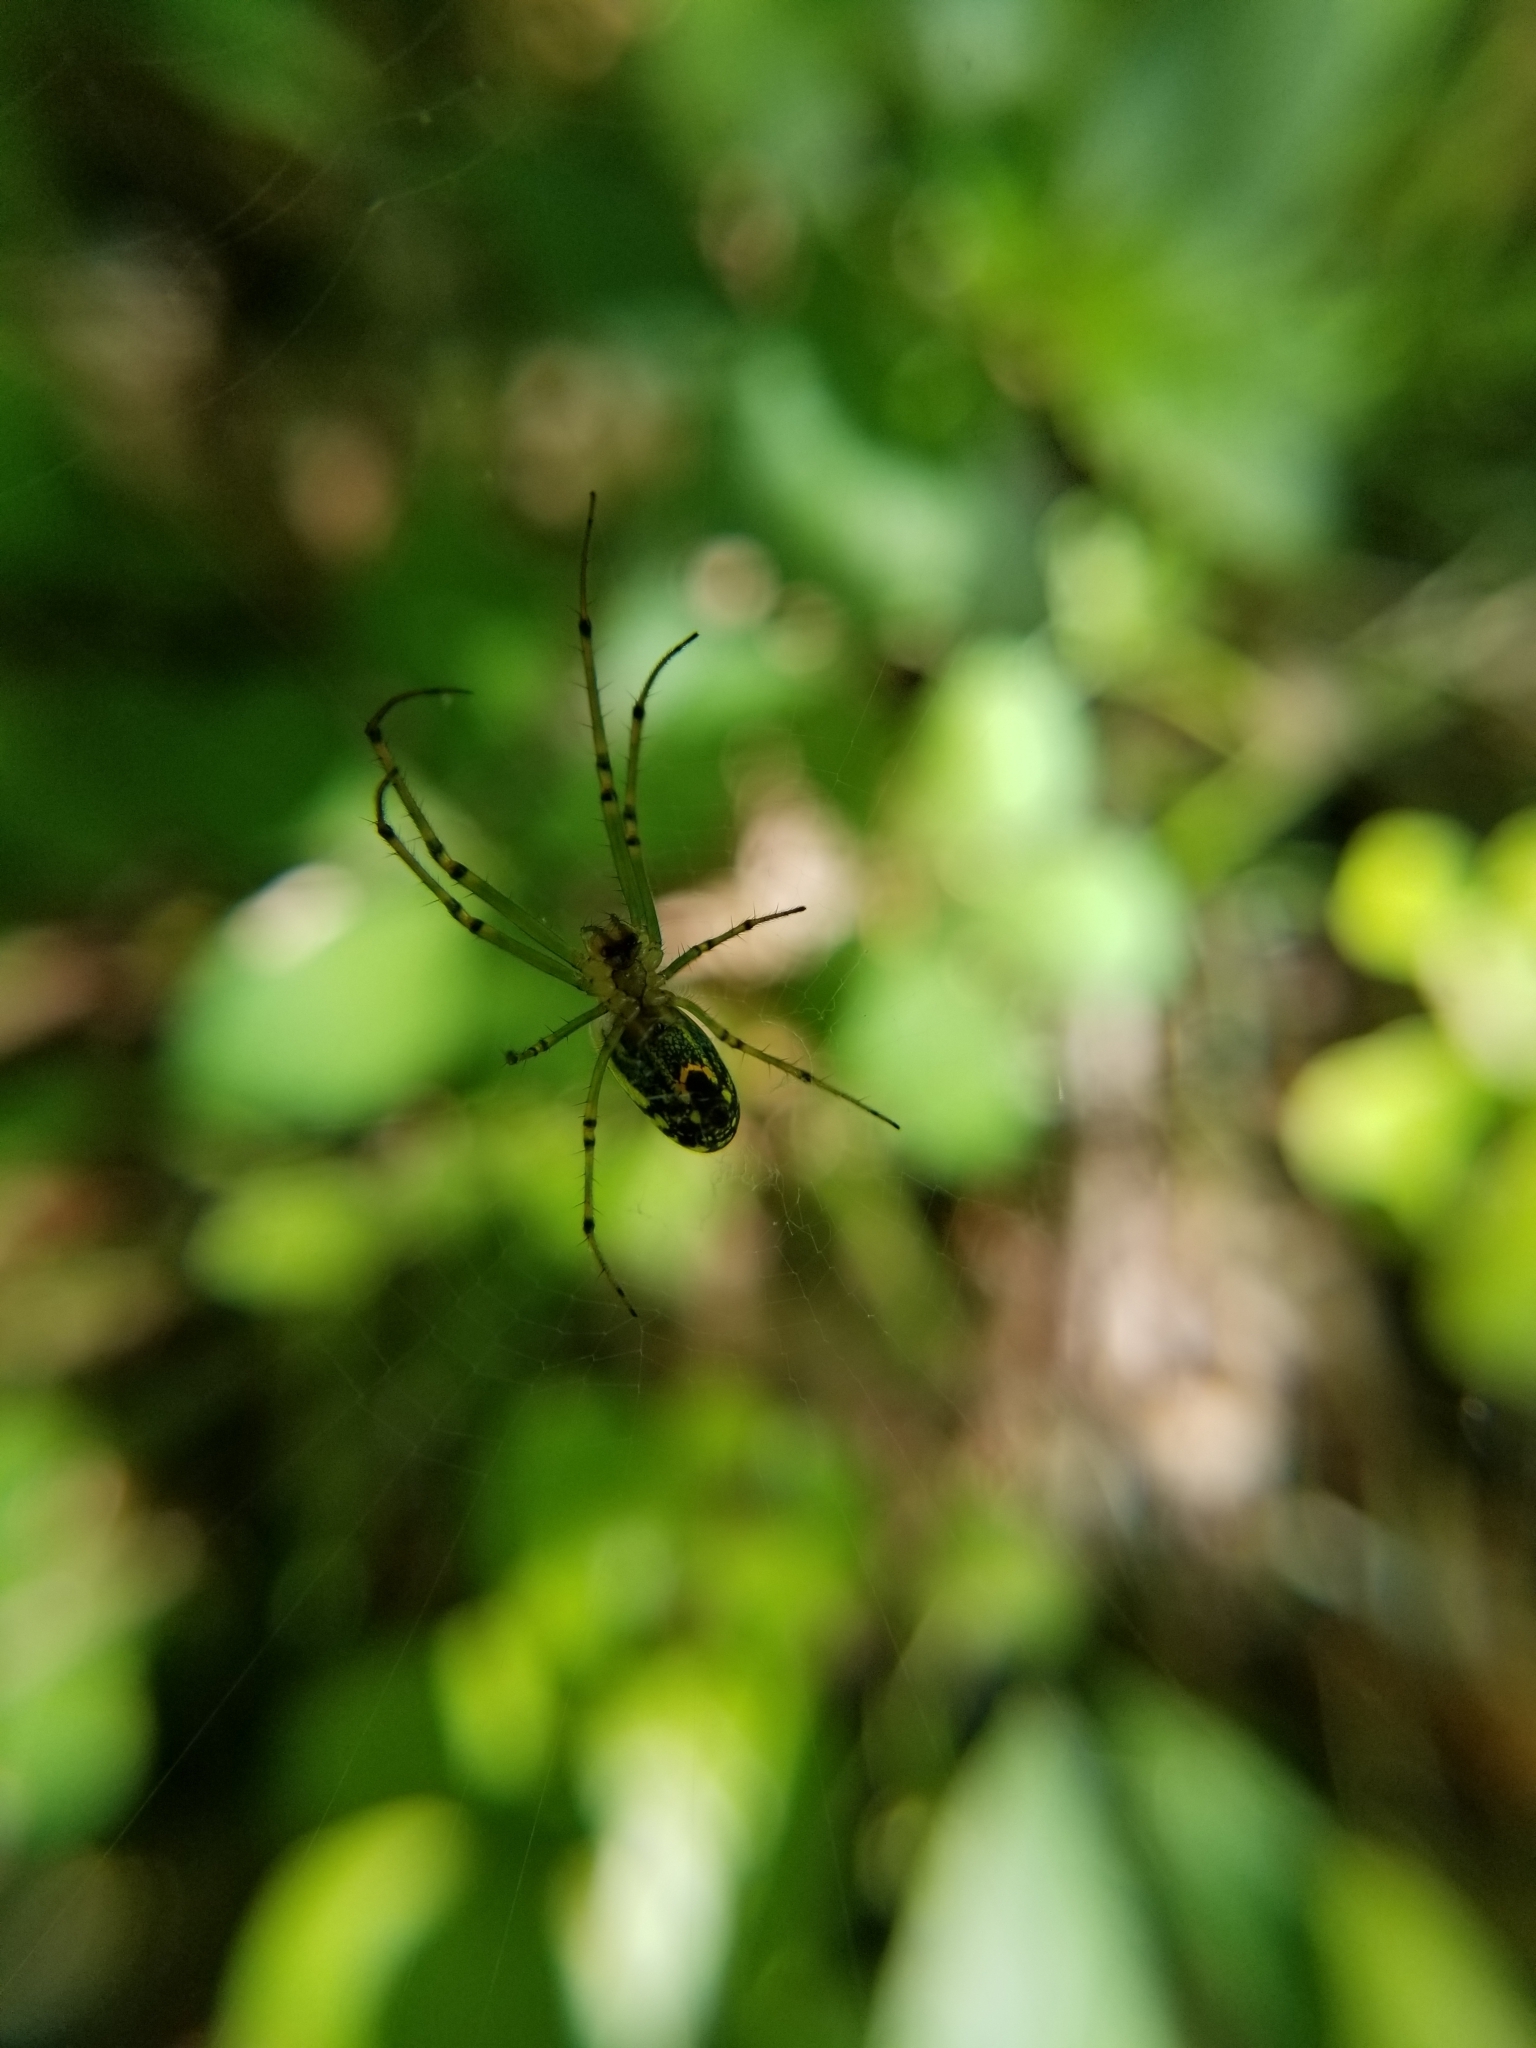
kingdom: Animalia
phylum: Arthropoda
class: Arachnida
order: Araneae
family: Tetragnathidae
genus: Leucauge
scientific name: Leucauge venusta
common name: Longjawed orb weavers
